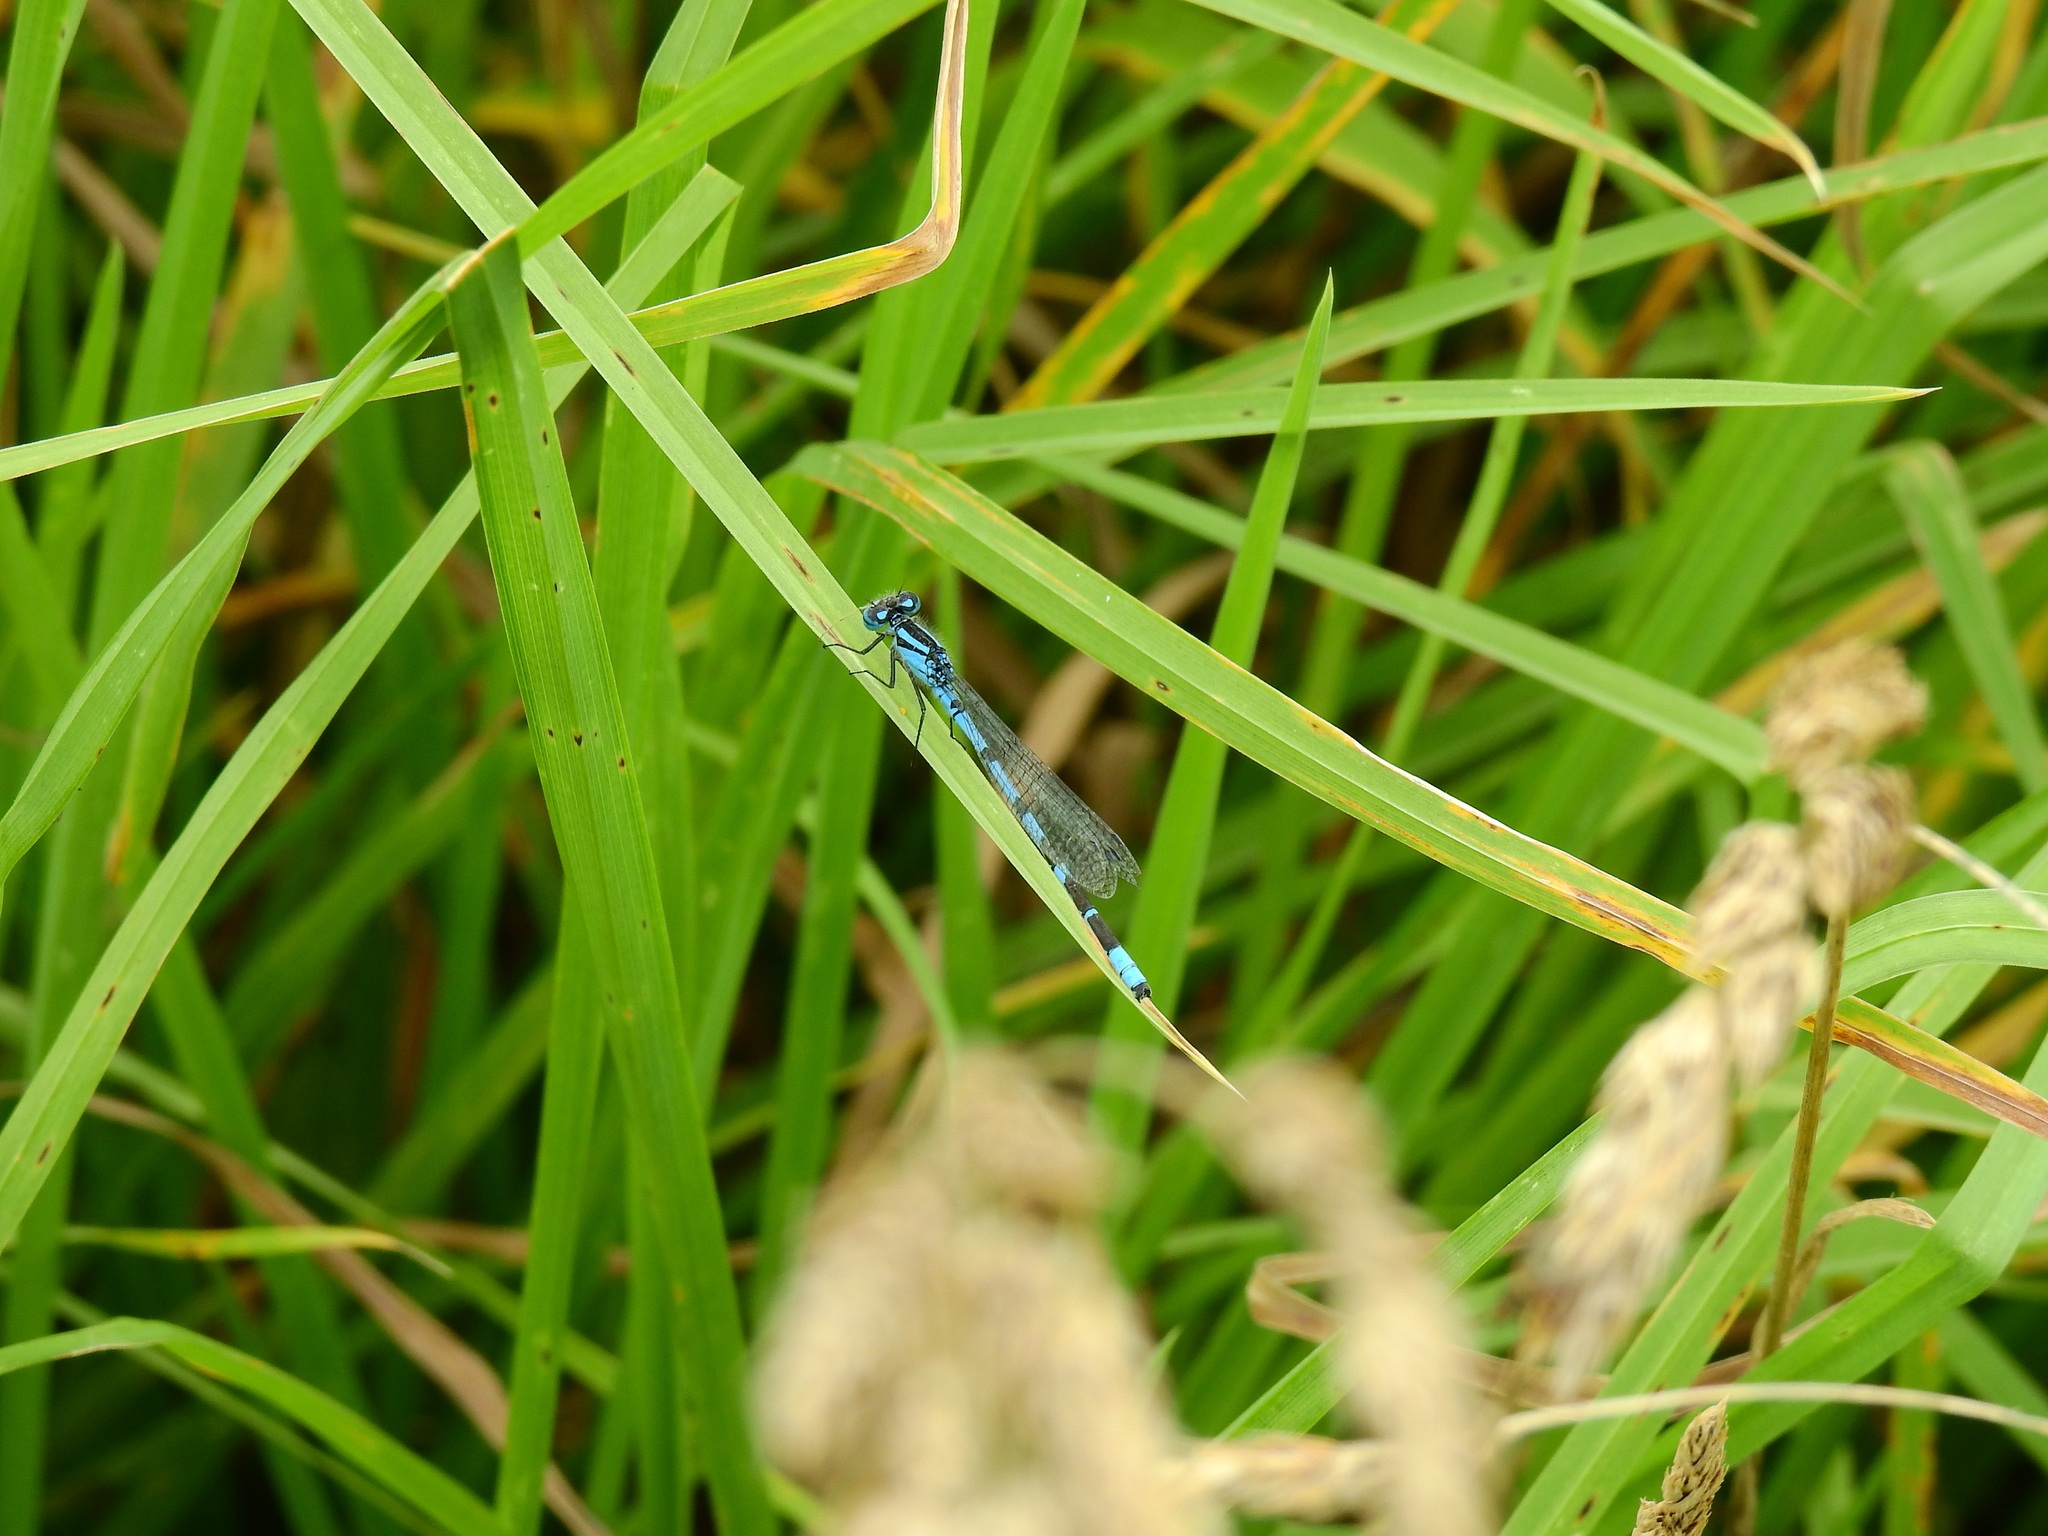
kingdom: Animalia
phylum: Arthropoda
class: Insecta
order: Odonata
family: Coenagrionidae
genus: Enallagma
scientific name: Enallagma cyathigerum
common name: Common blue damselfly
